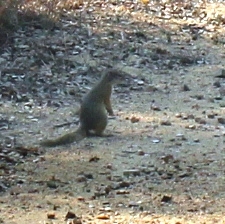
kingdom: Animalia
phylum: Chordata
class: Mammalia
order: Rodentia
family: Sciuridae
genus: Paraxerus
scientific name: Paraxerus cepapi
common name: Smith's bush squirrel
